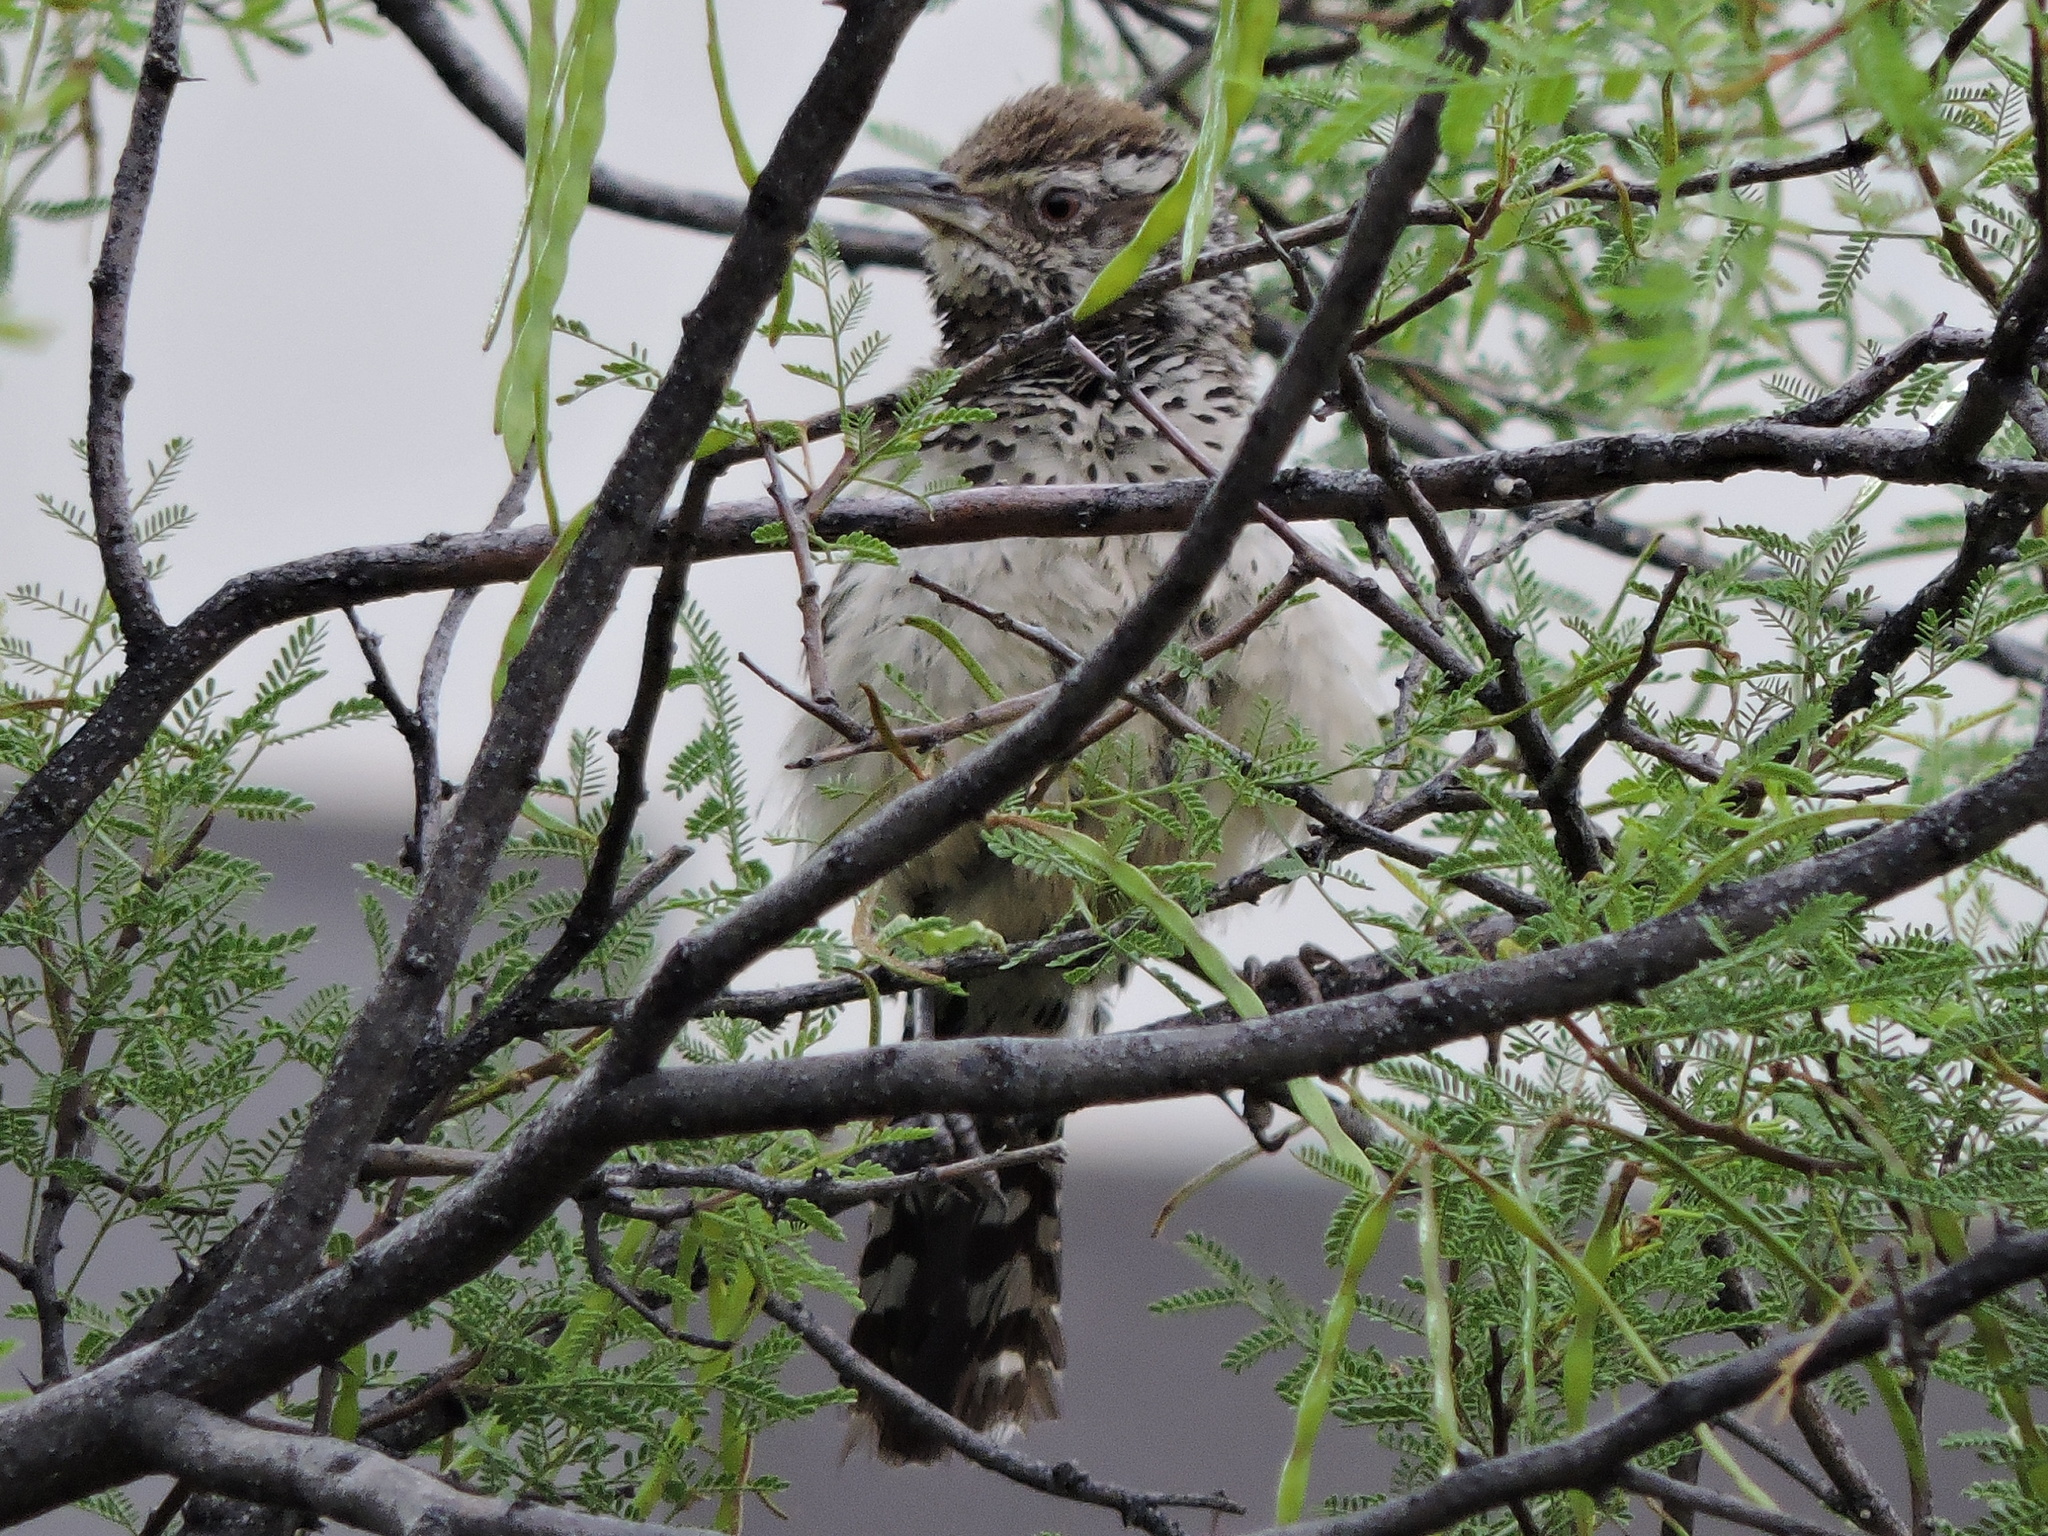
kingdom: Animalia
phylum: Chordata
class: Aves
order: Passeriformes
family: Troglodytidae
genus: Campylorhynchus
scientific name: Campylorhynchus brunneicapillus
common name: Cactus wren
